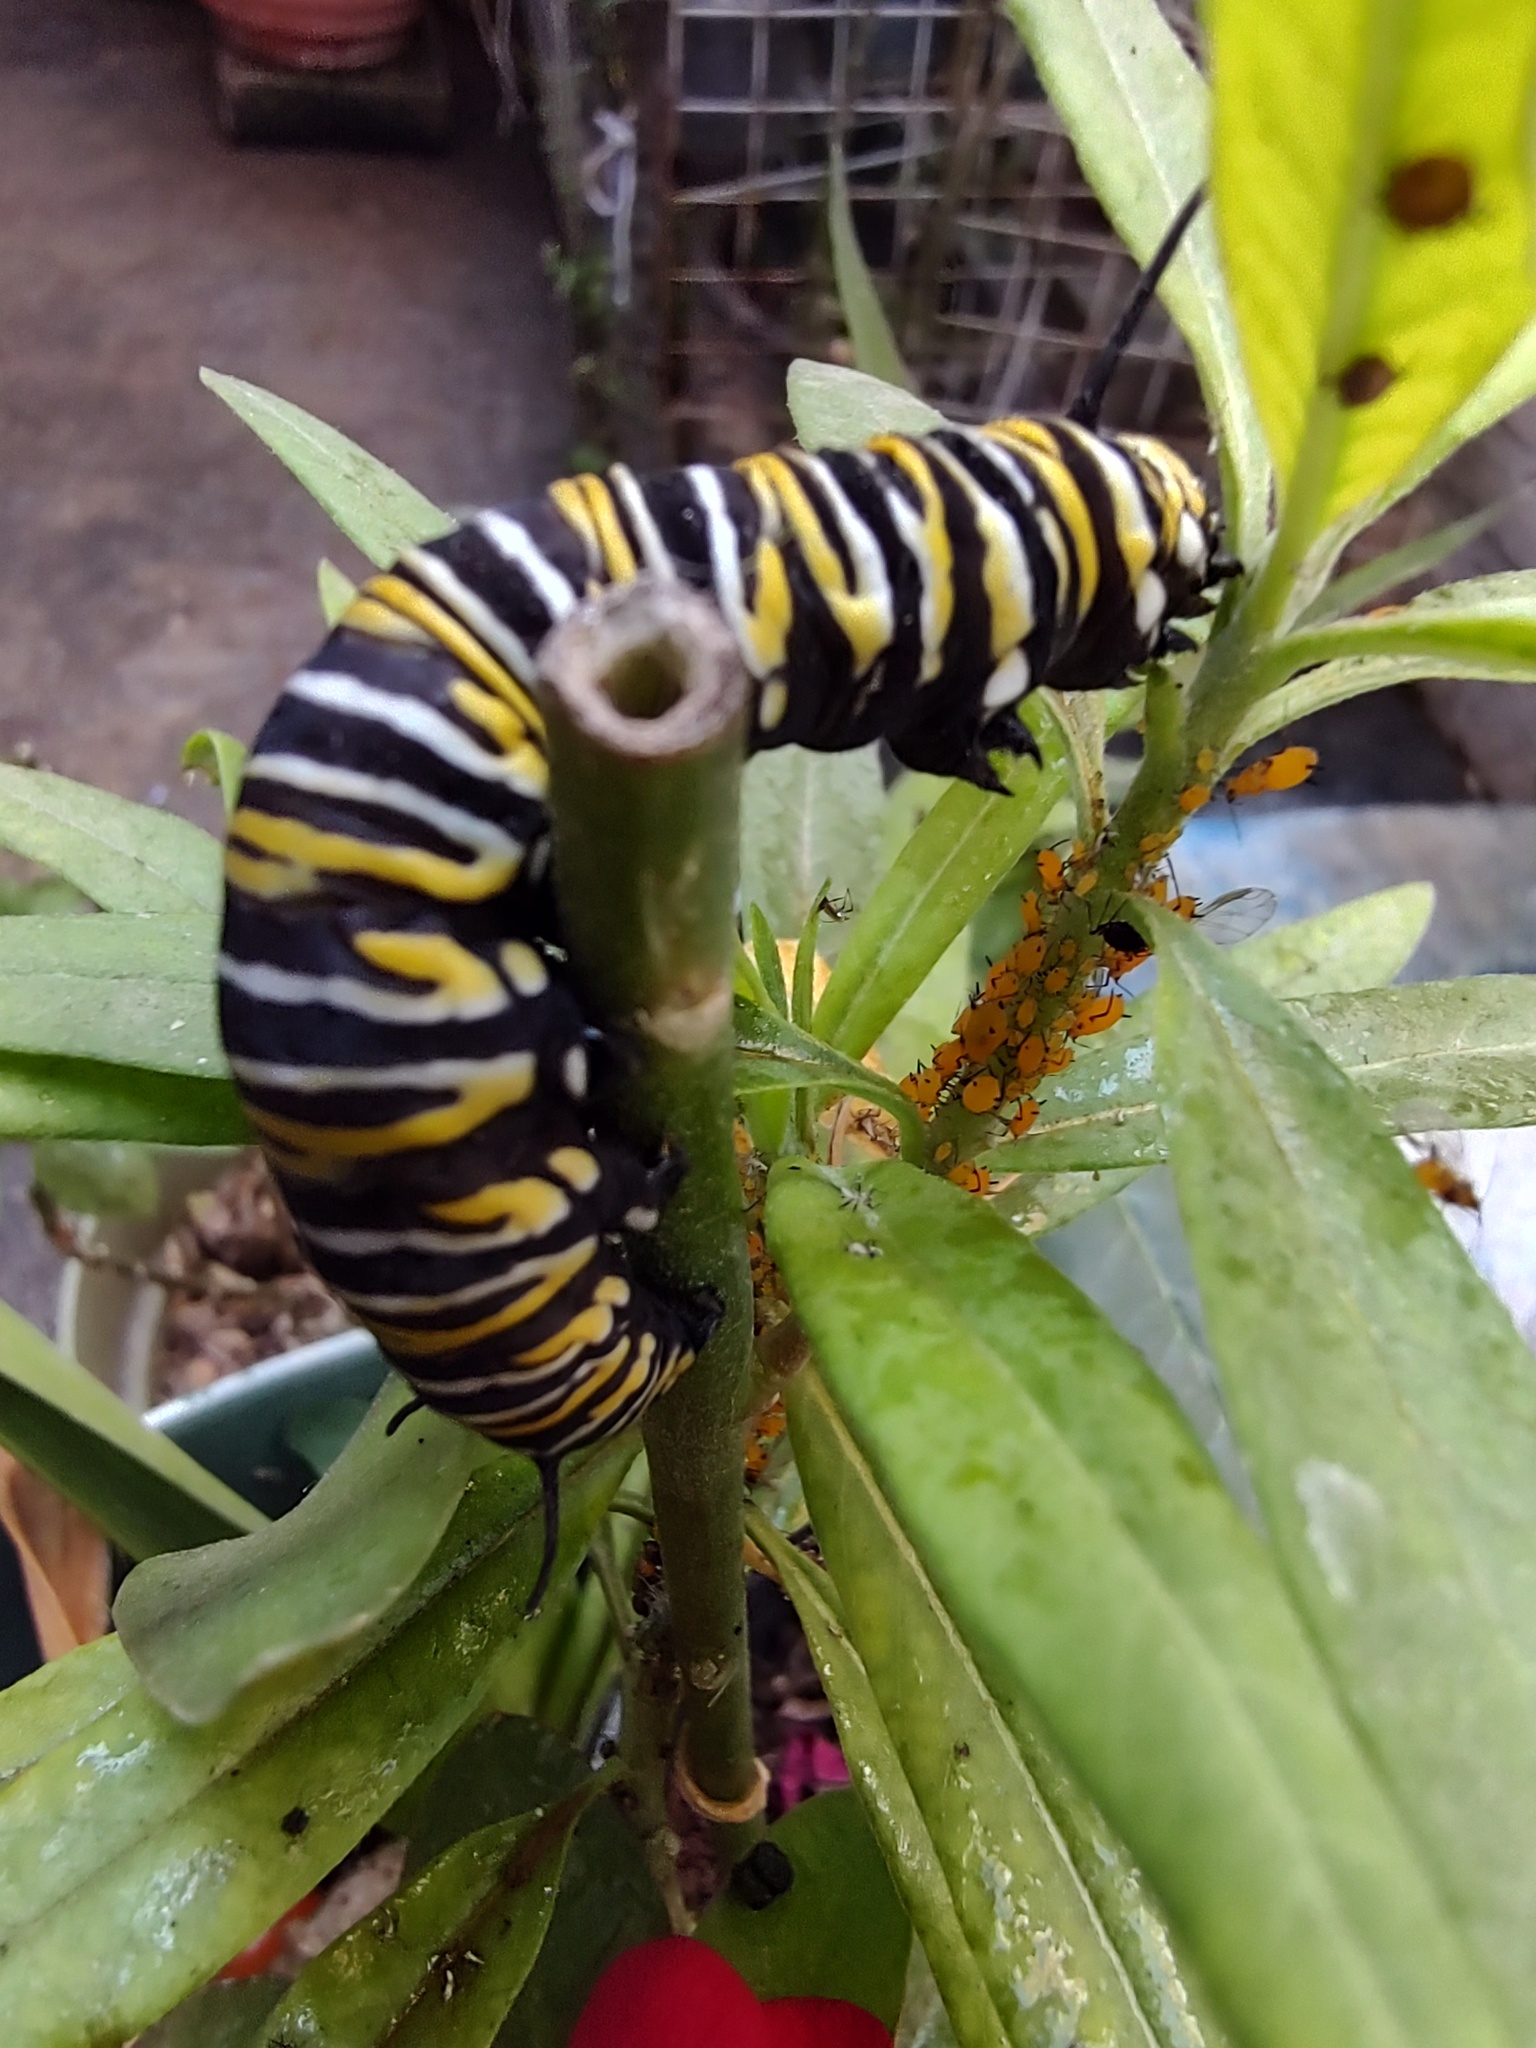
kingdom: Animalia
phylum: Arthropoda
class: Insecta
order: Lepidoptera
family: Nymphalidae
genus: Danaus
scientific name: Danaus plexippus
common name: Monarch
